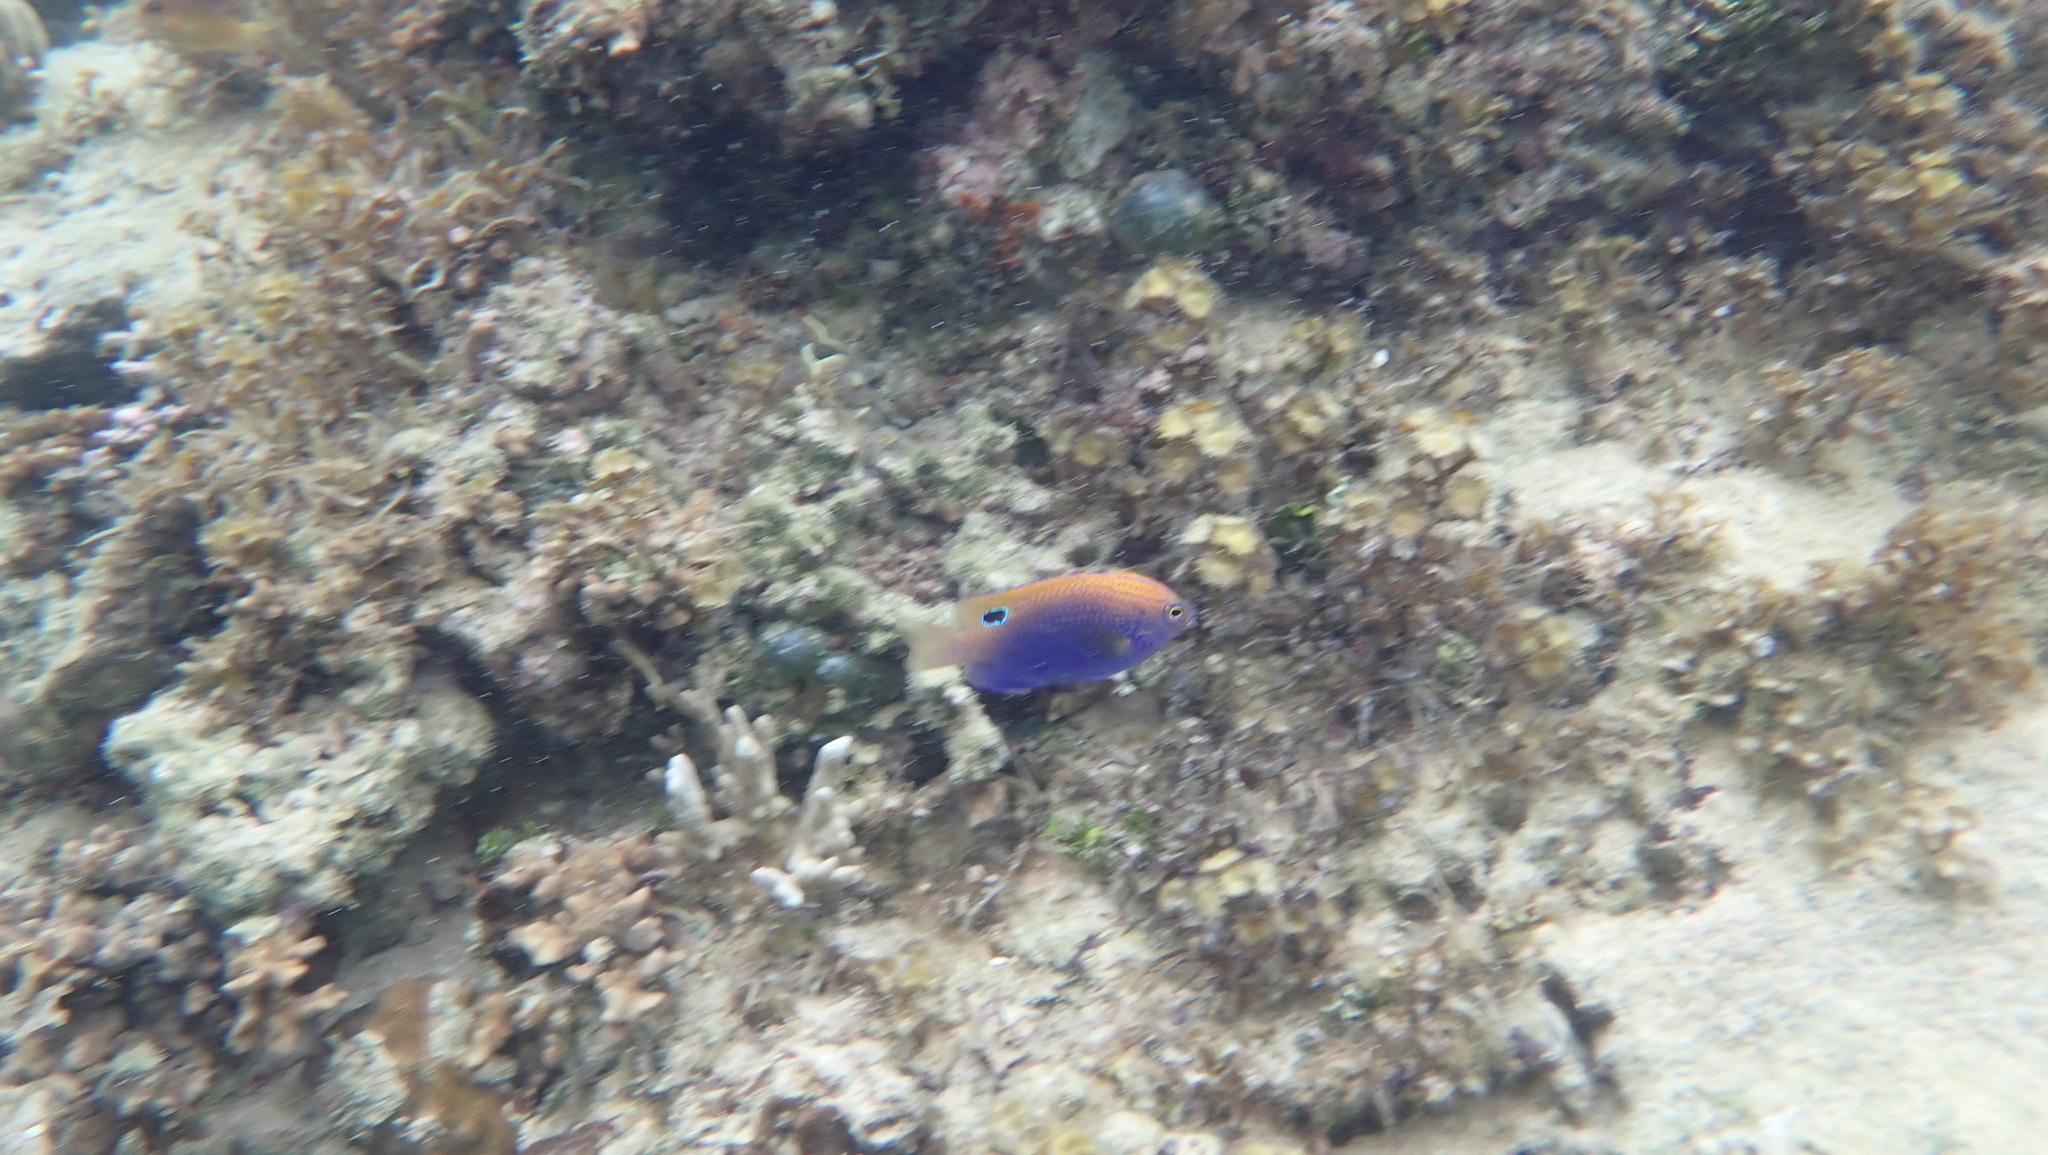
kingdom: Animalia
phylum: Chordata
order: Perciformes
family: Pomacentridae
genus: Pomacentrus
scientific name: Pomacentrus vaiuli
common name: Princess damsel
